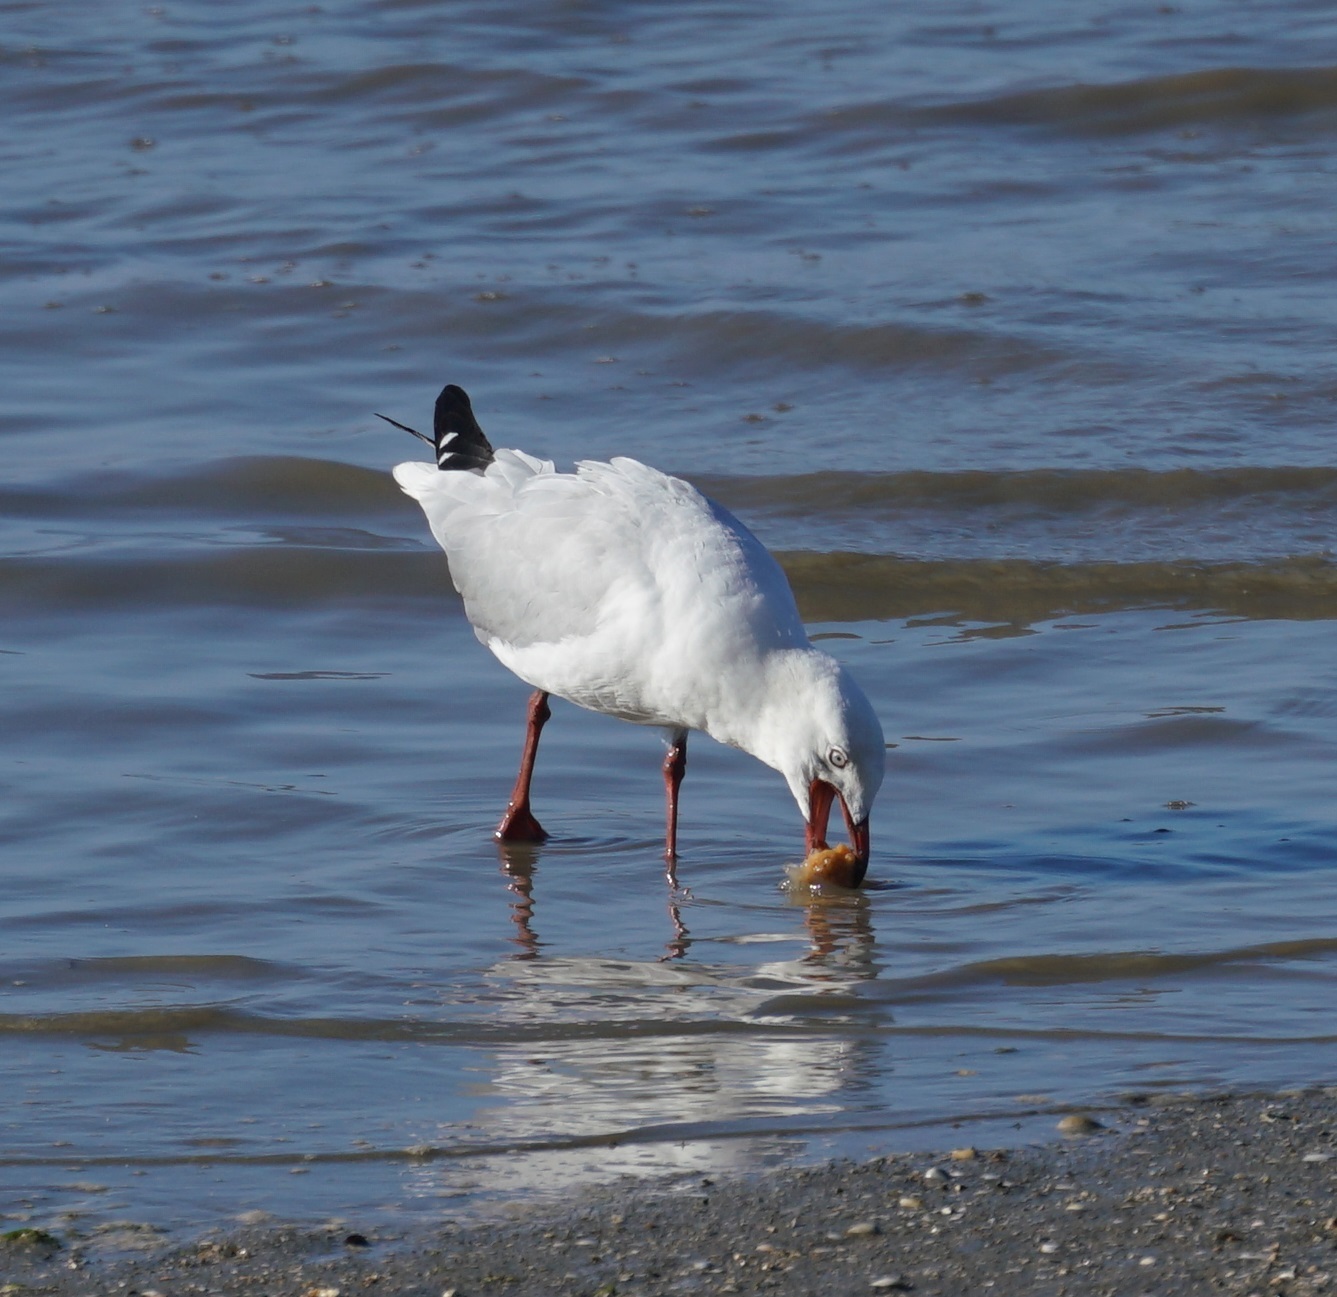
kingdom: Animalia
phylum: Chordata
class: Aves
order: Charadriiformes
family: Laridae
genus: Chroicocephalus
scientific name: Chroicocephalus novaehollandiae
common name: Silver gull
